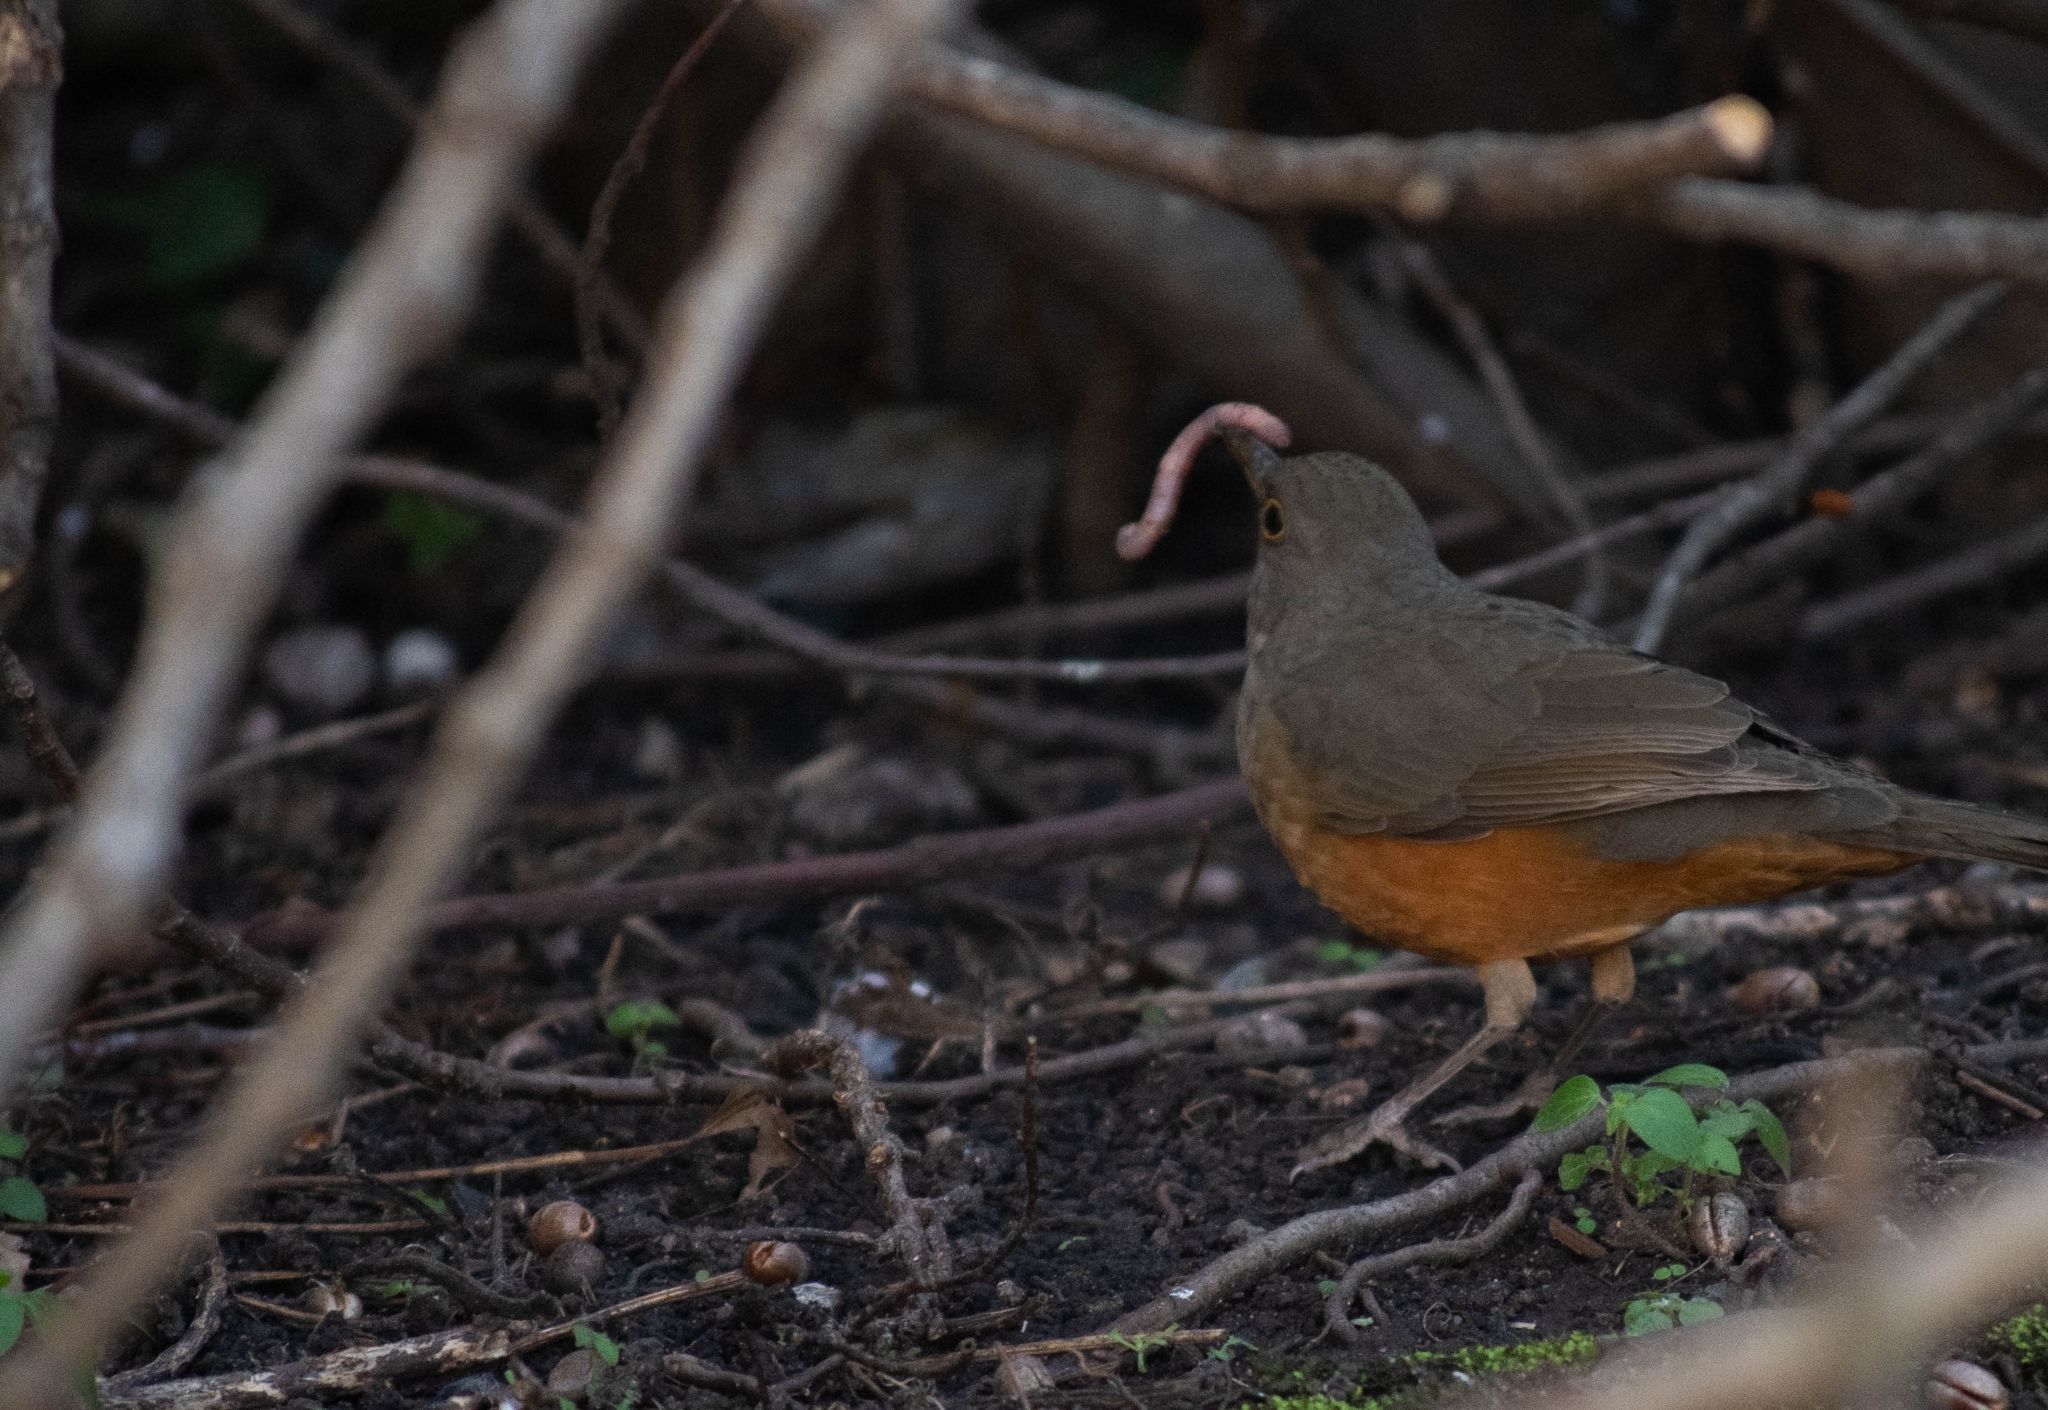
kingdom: Animalia
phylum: Chordata
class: Aves
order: Passeriformes
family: Turdidae
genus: Turdus
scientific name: Turdus rufiventris
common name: Rufous-bellied thrush
